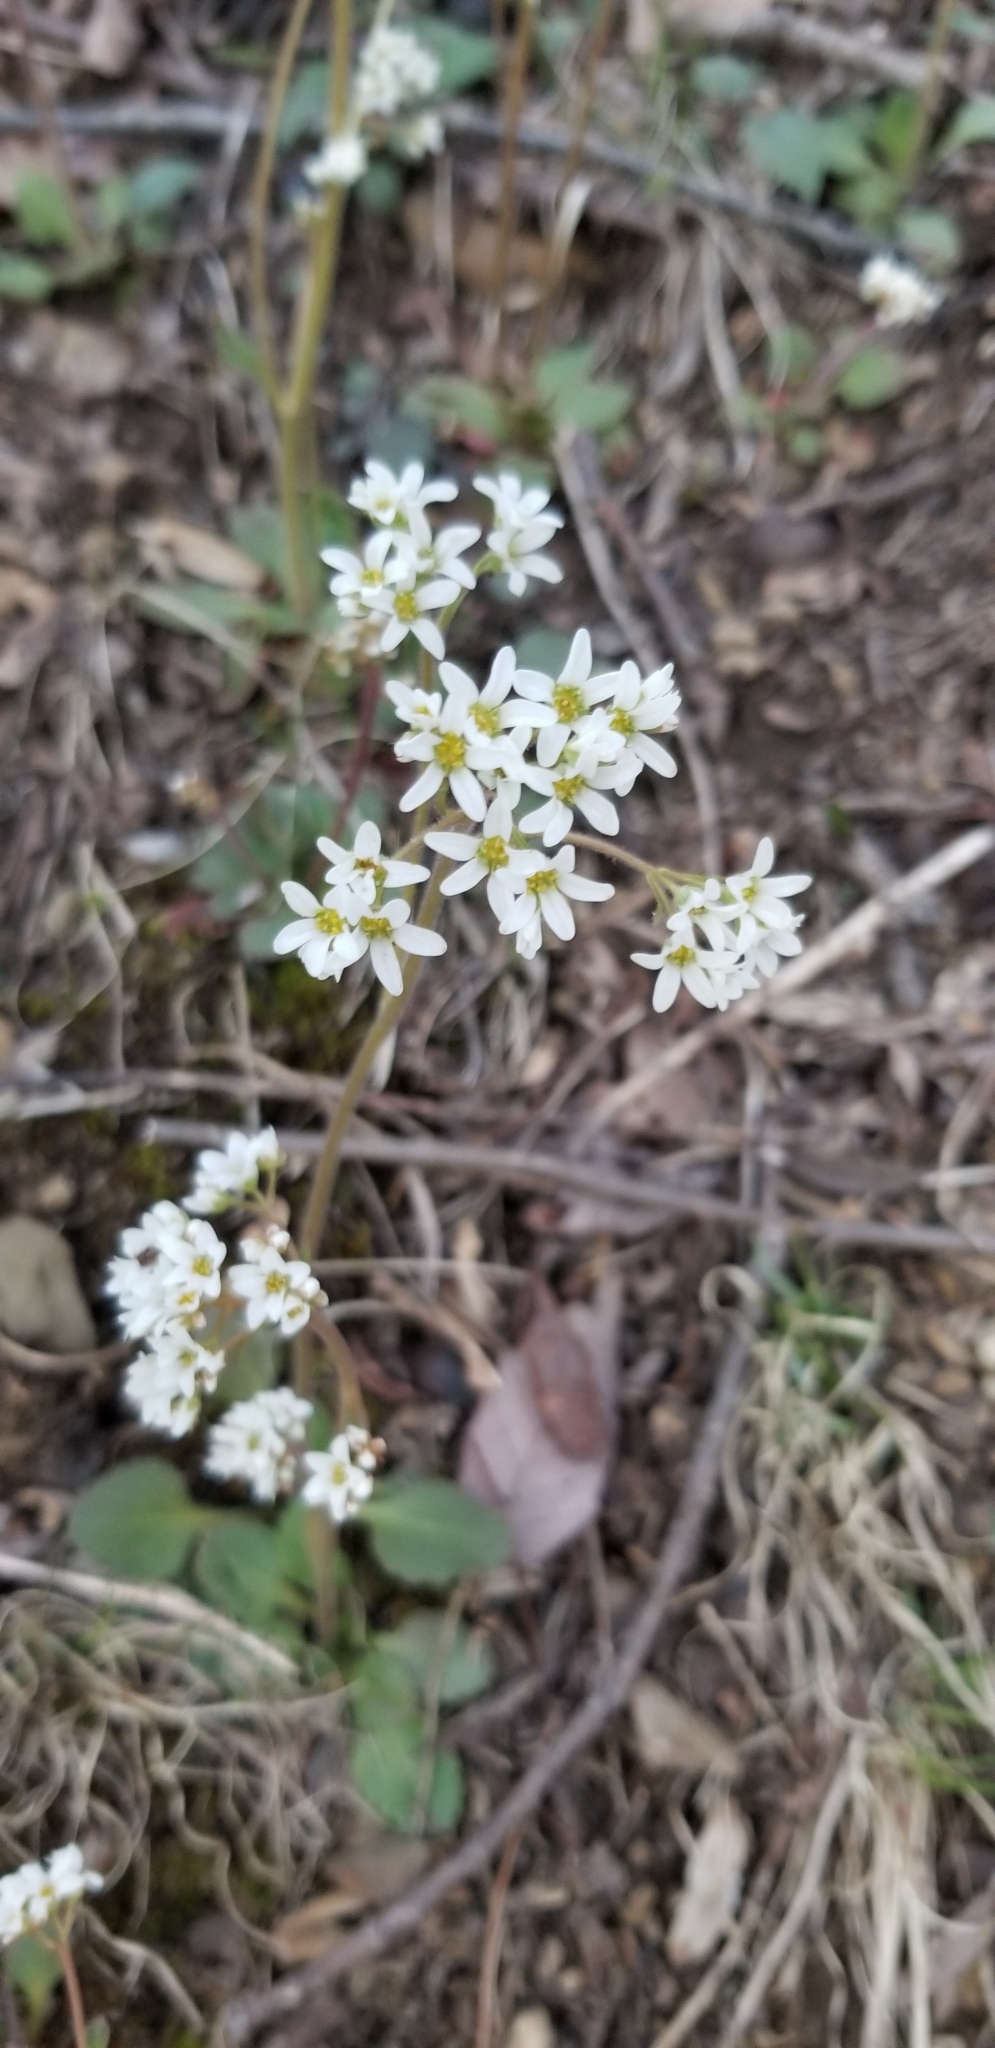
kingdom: Plantae
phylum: Tracheophyta
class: Magnoliopsida
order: Saxifragales
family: Saxifragaceae
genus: Micranthes
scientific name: Micranthes virginiensis
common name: Early saxifrage
